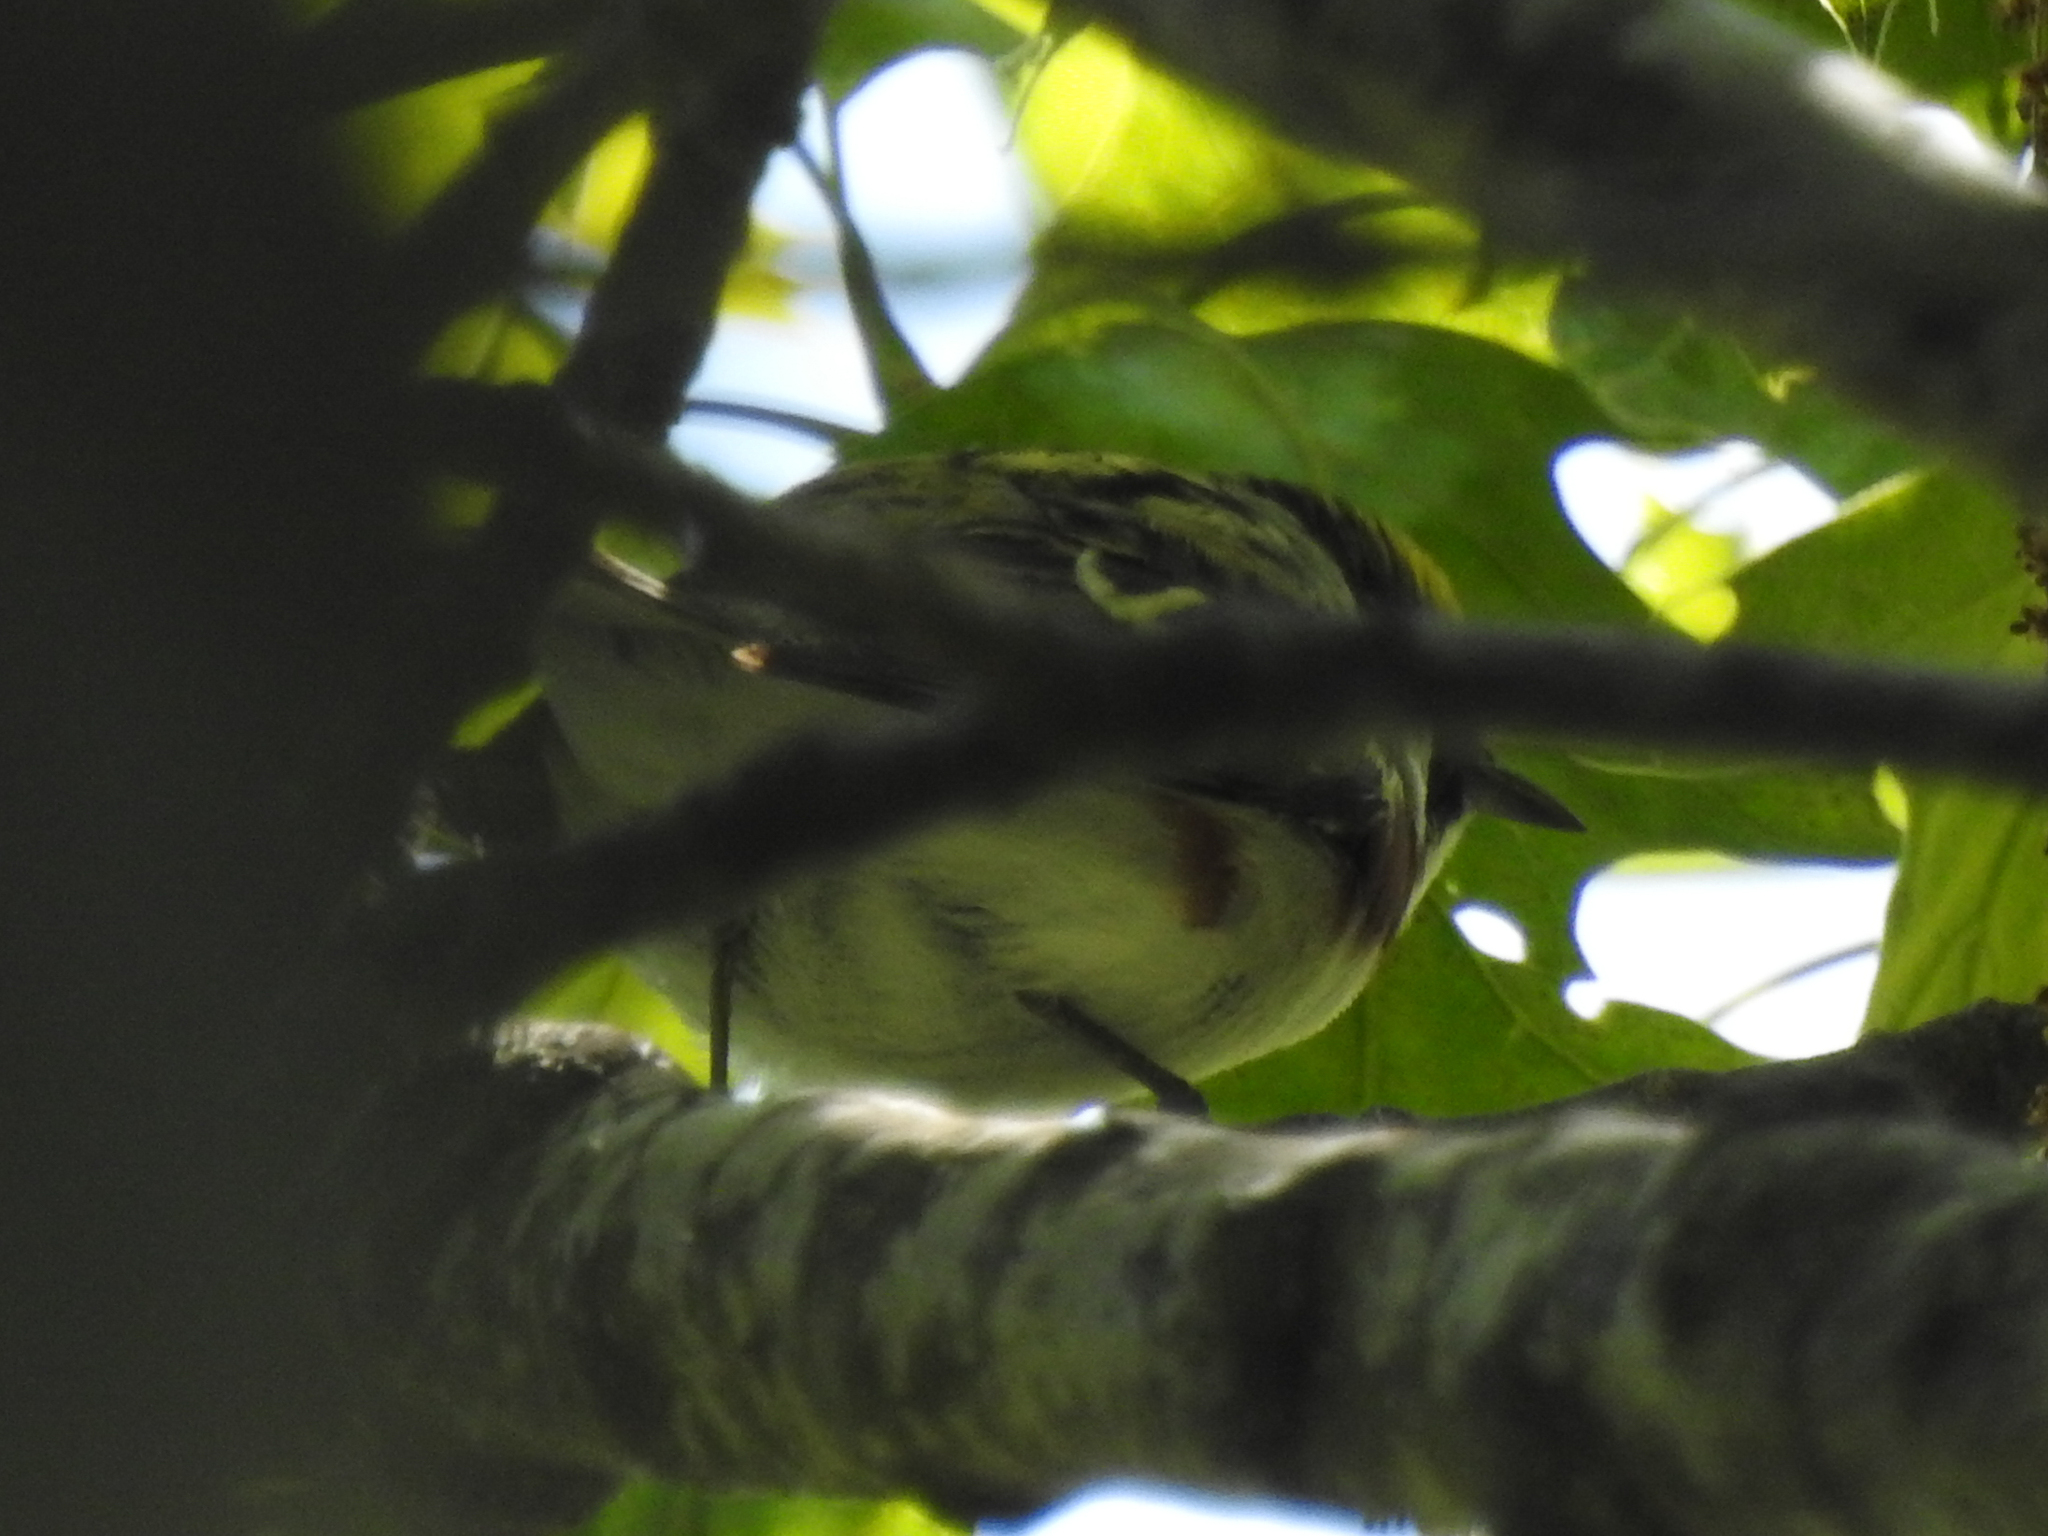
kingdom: Animalia
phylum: Chordata
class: Aves
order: Passeriformes
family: Parulidae
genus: Setophaga
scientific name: Setophaga pensylvanica
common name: Chestnut-sided warbler
